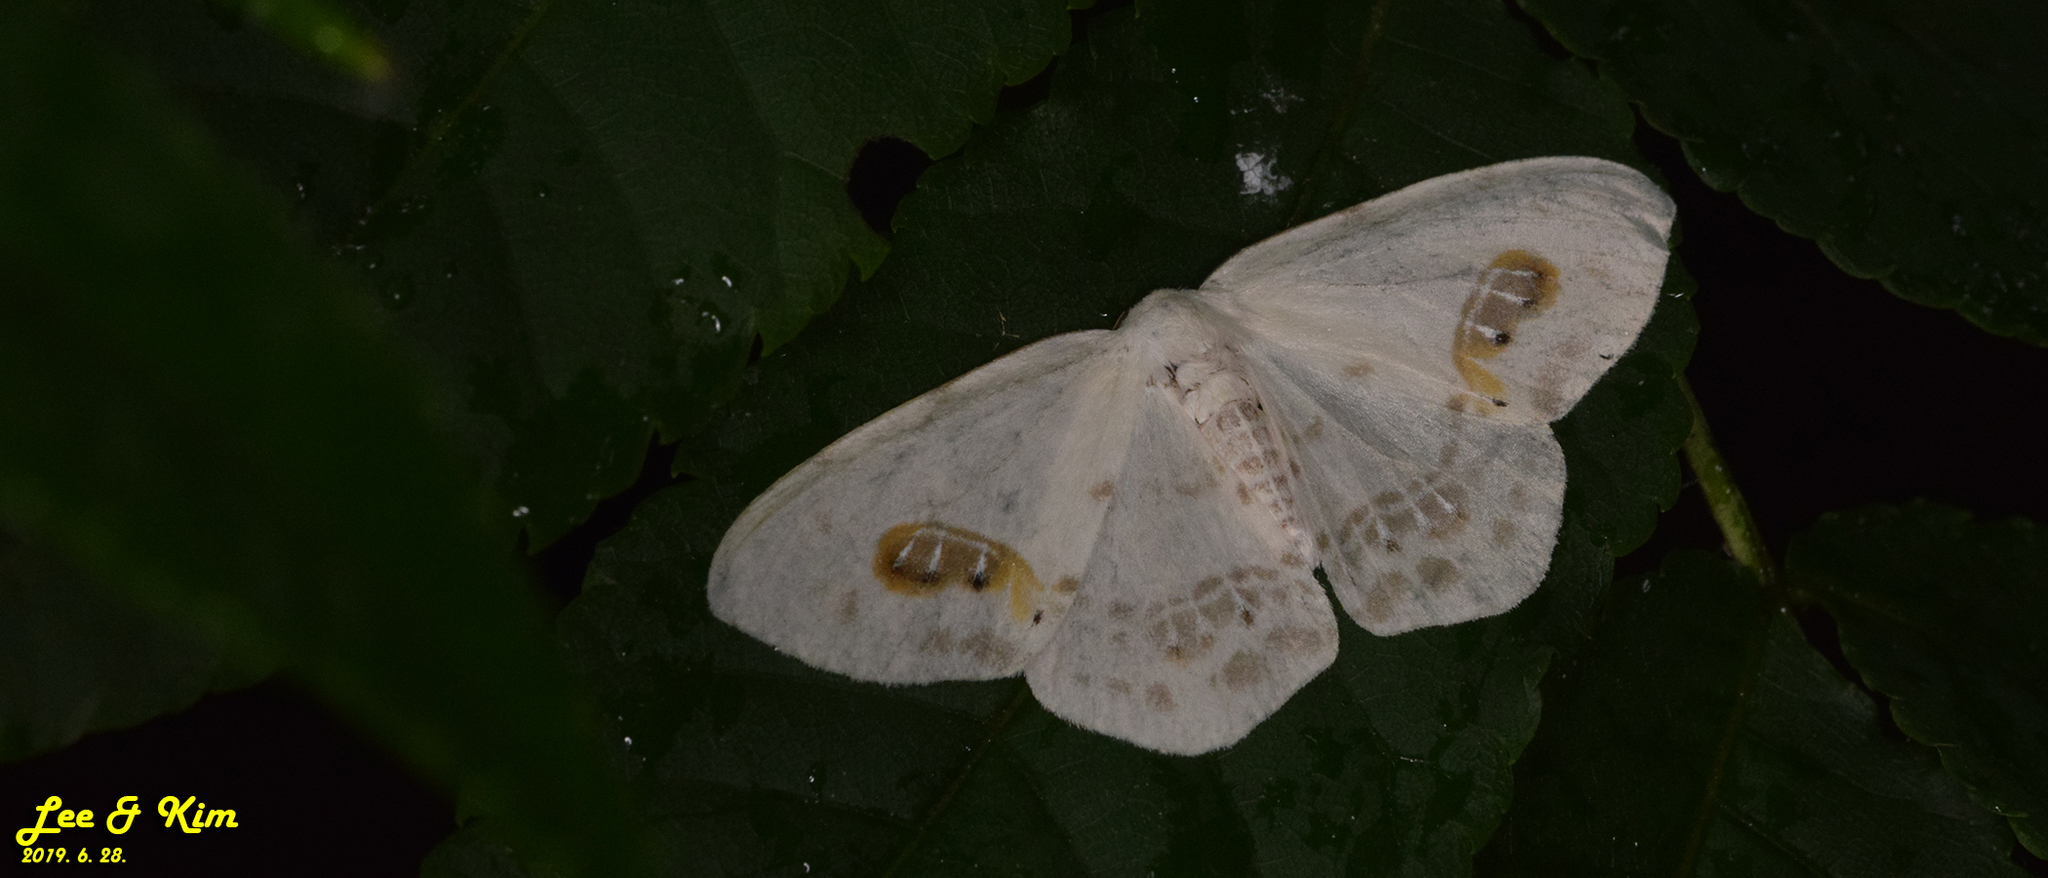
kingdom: Animalia
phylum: Arthropoda
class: Insecta
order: Lepidoptera
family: Drepanidae
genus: Auzata
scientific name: Auzata superba
